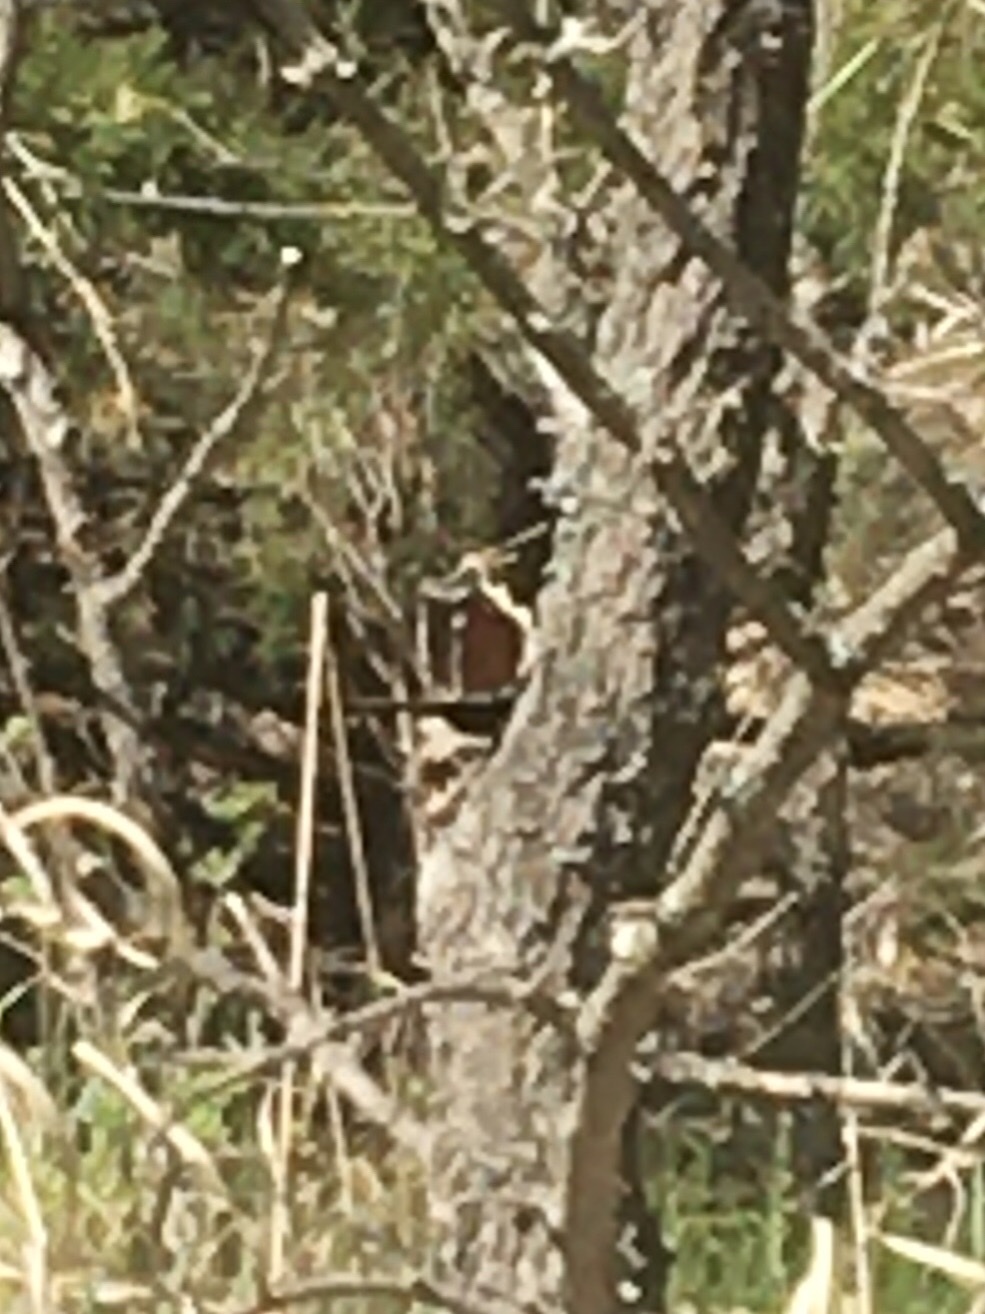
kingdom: Animalia
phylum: Arthropoda
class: Insecta
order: Lepidoptera
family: Nymphalidae
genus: Nymphalis
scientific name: Nymphalis antiopa
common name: Camberwell beauty
